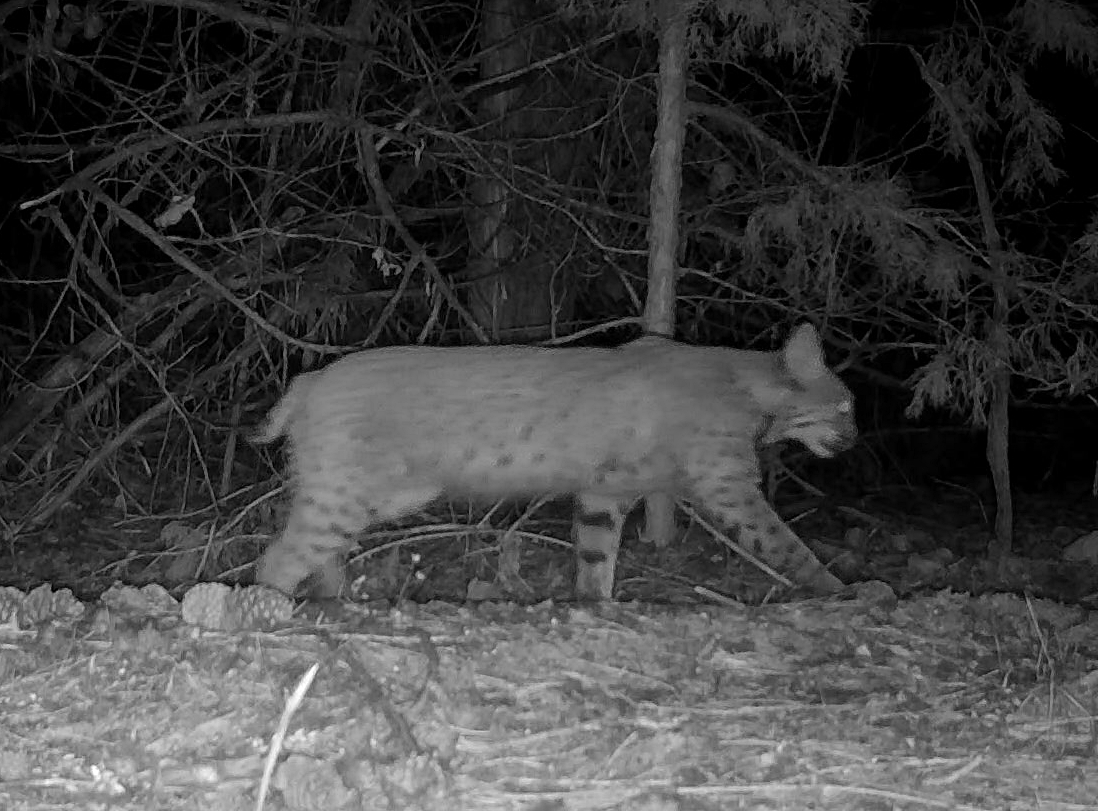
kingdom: Animalia
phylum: Chordata
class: Mammalia
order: Carnivora
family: Felidae
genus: Lynx
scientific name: Lynx rufus
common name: Bobcat
